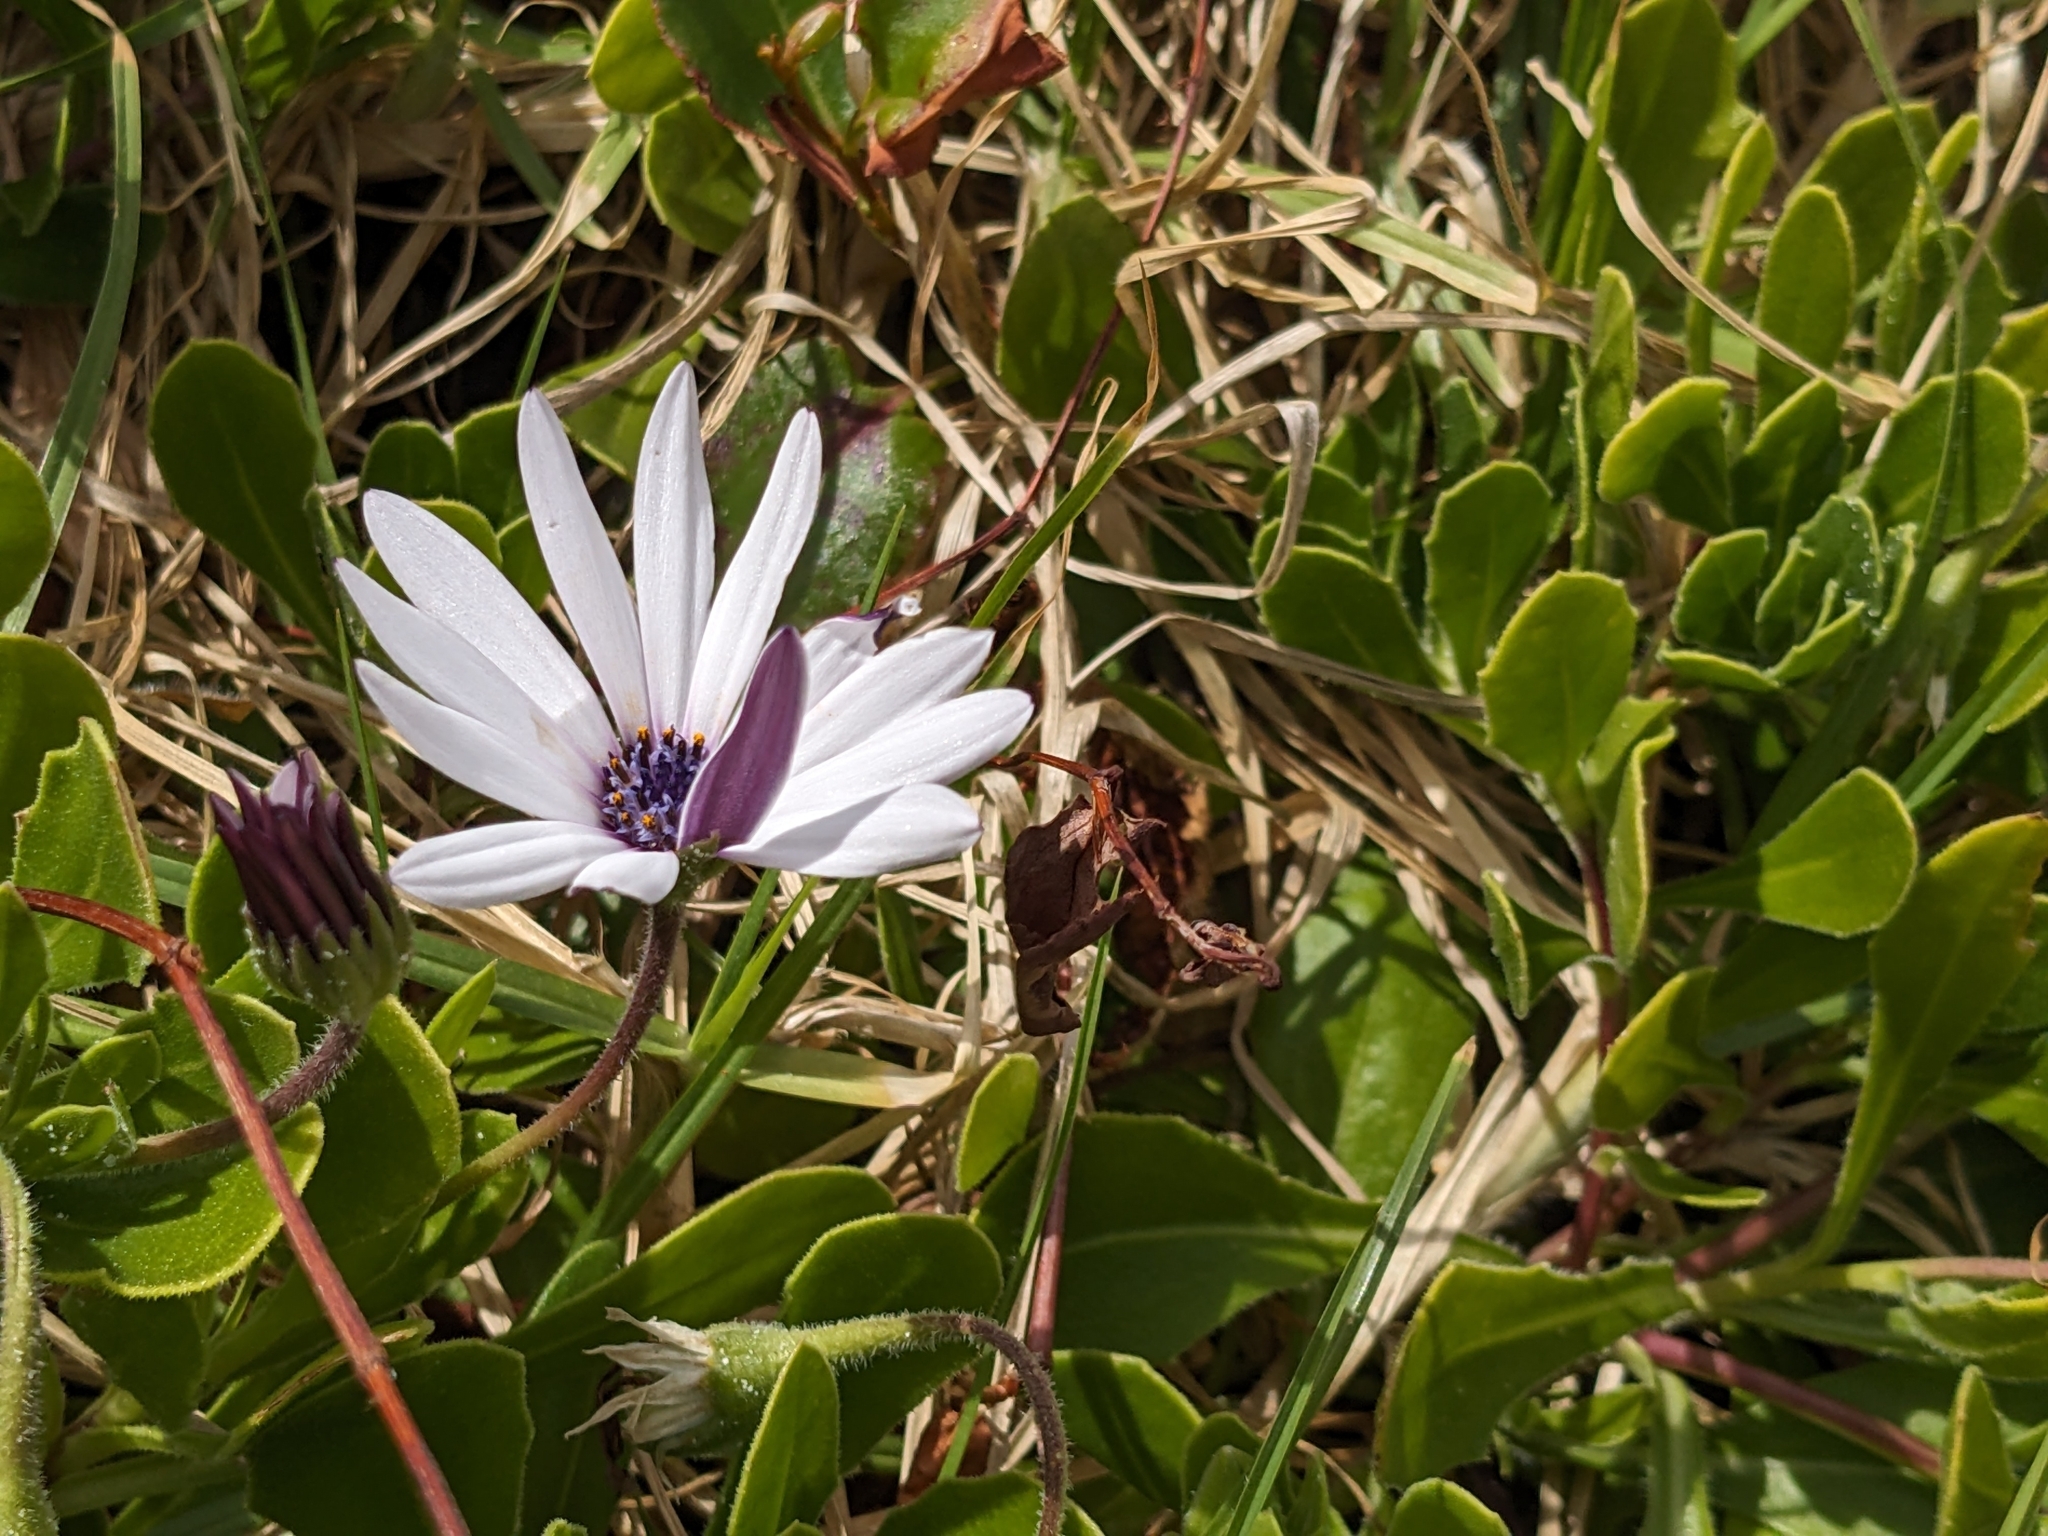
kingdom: Plantae
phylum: Tracheophyta
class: Magnoliopsida
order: Asterales
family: Asteraceae
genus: Dimorphotheca
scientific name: Dimorphotheca fruticosa
